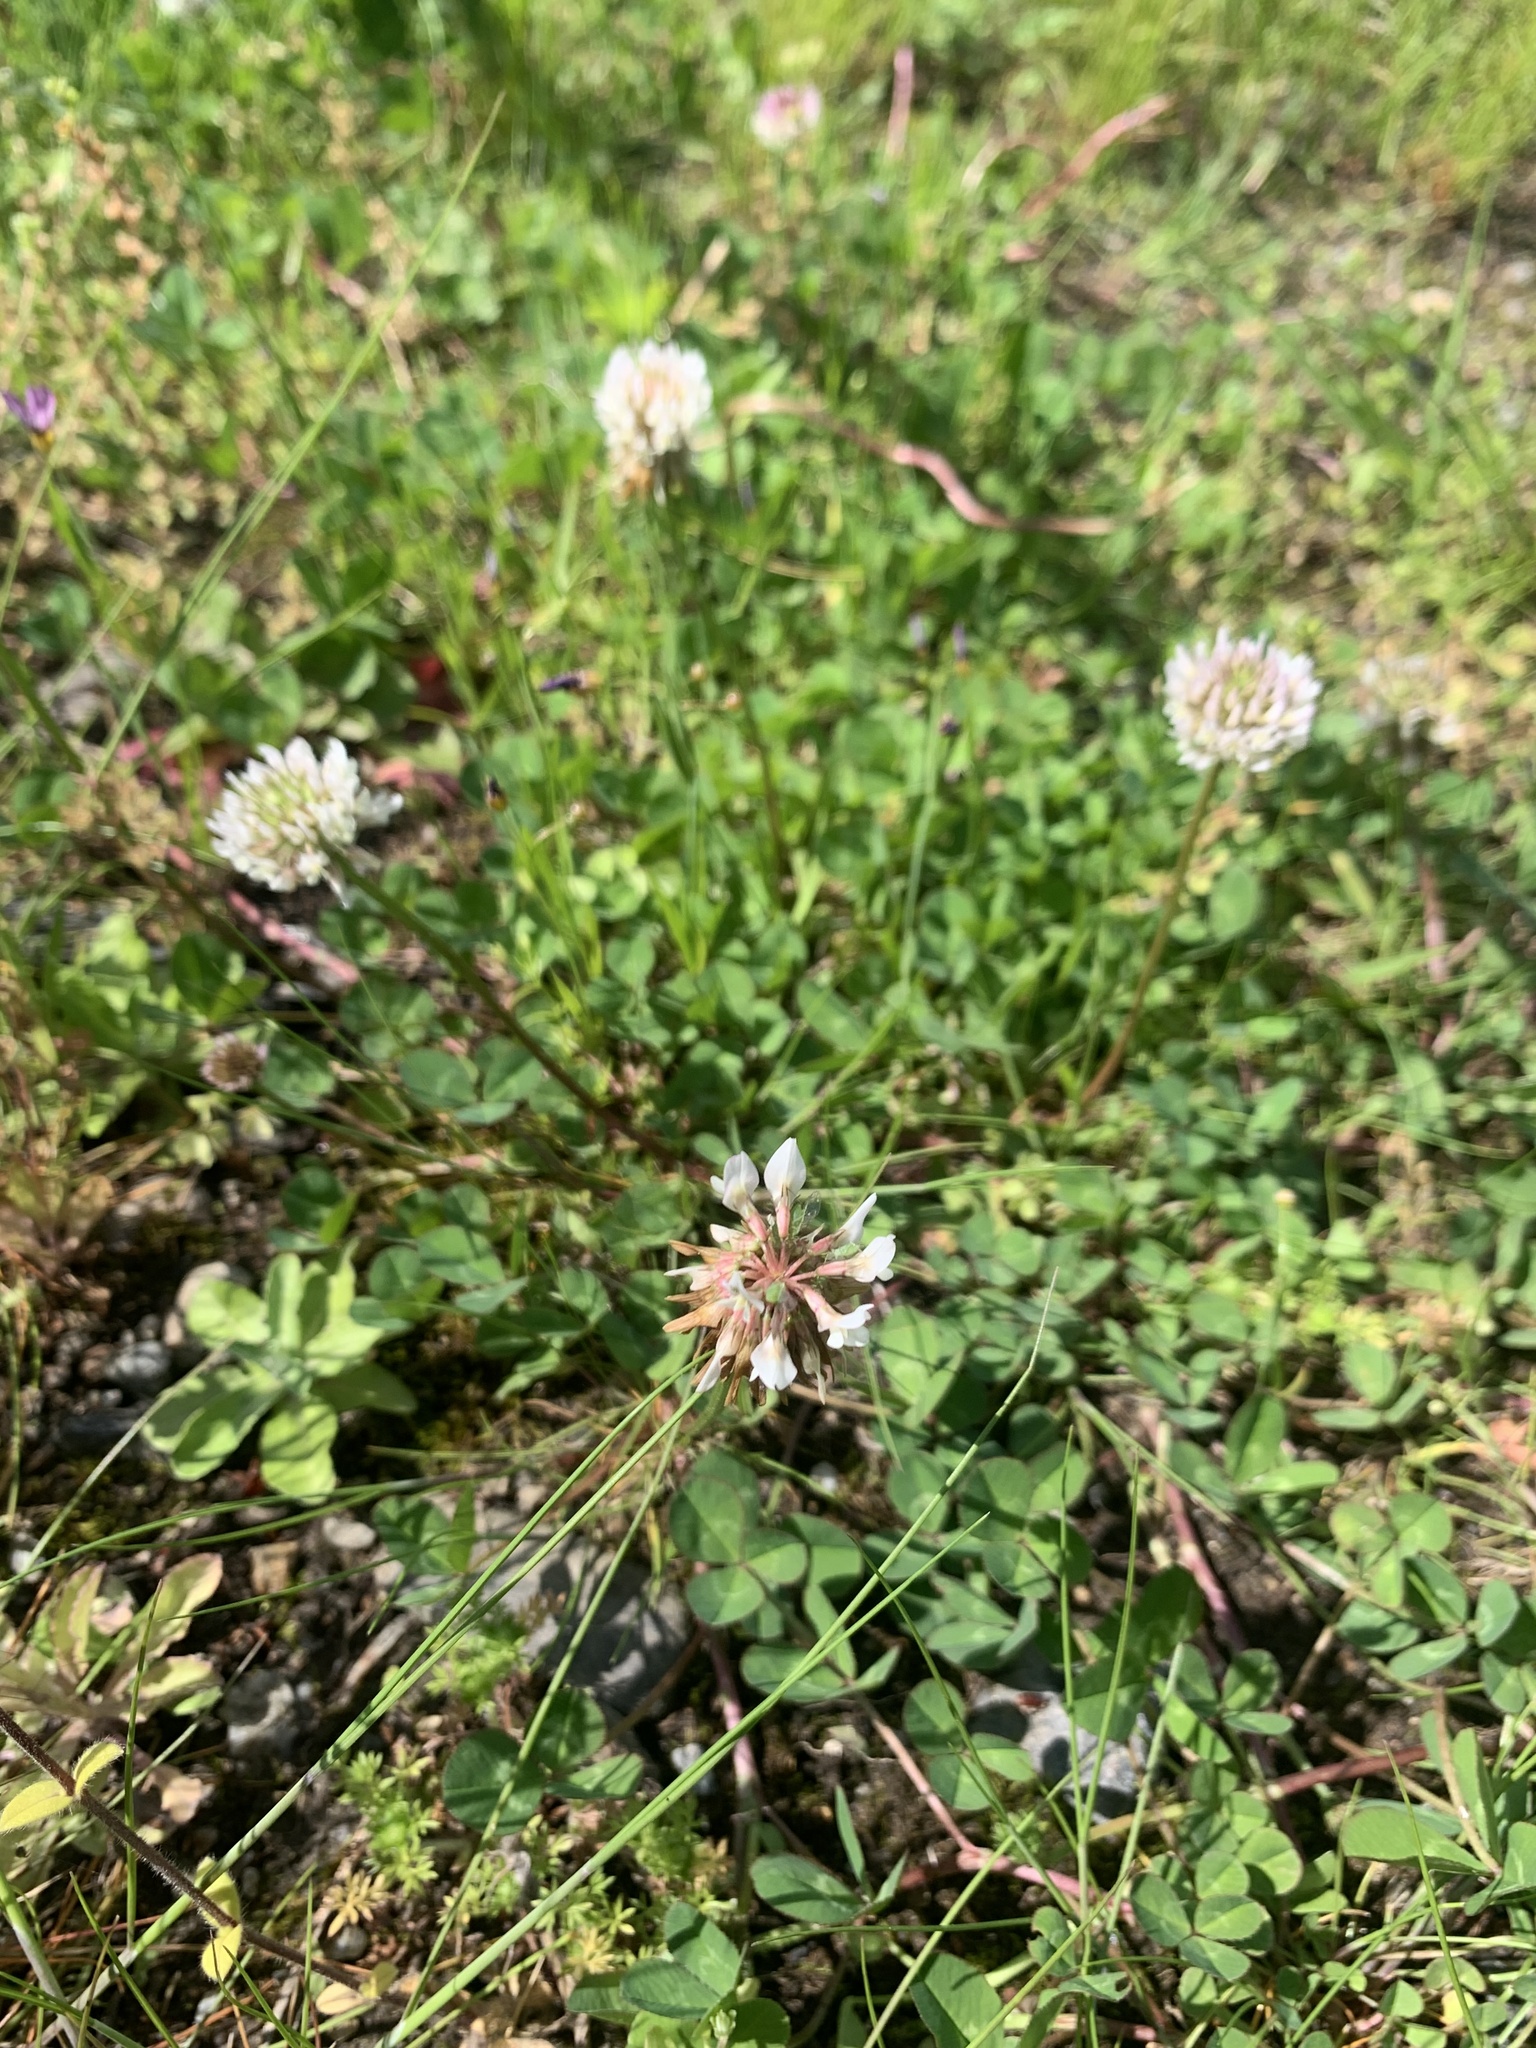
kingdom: Plantae
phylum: Tracheophyta
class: Magnoliopsida
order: Fabales
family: Fabaceae
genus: Trifolium
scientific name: Trifolium repens
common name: White clover
